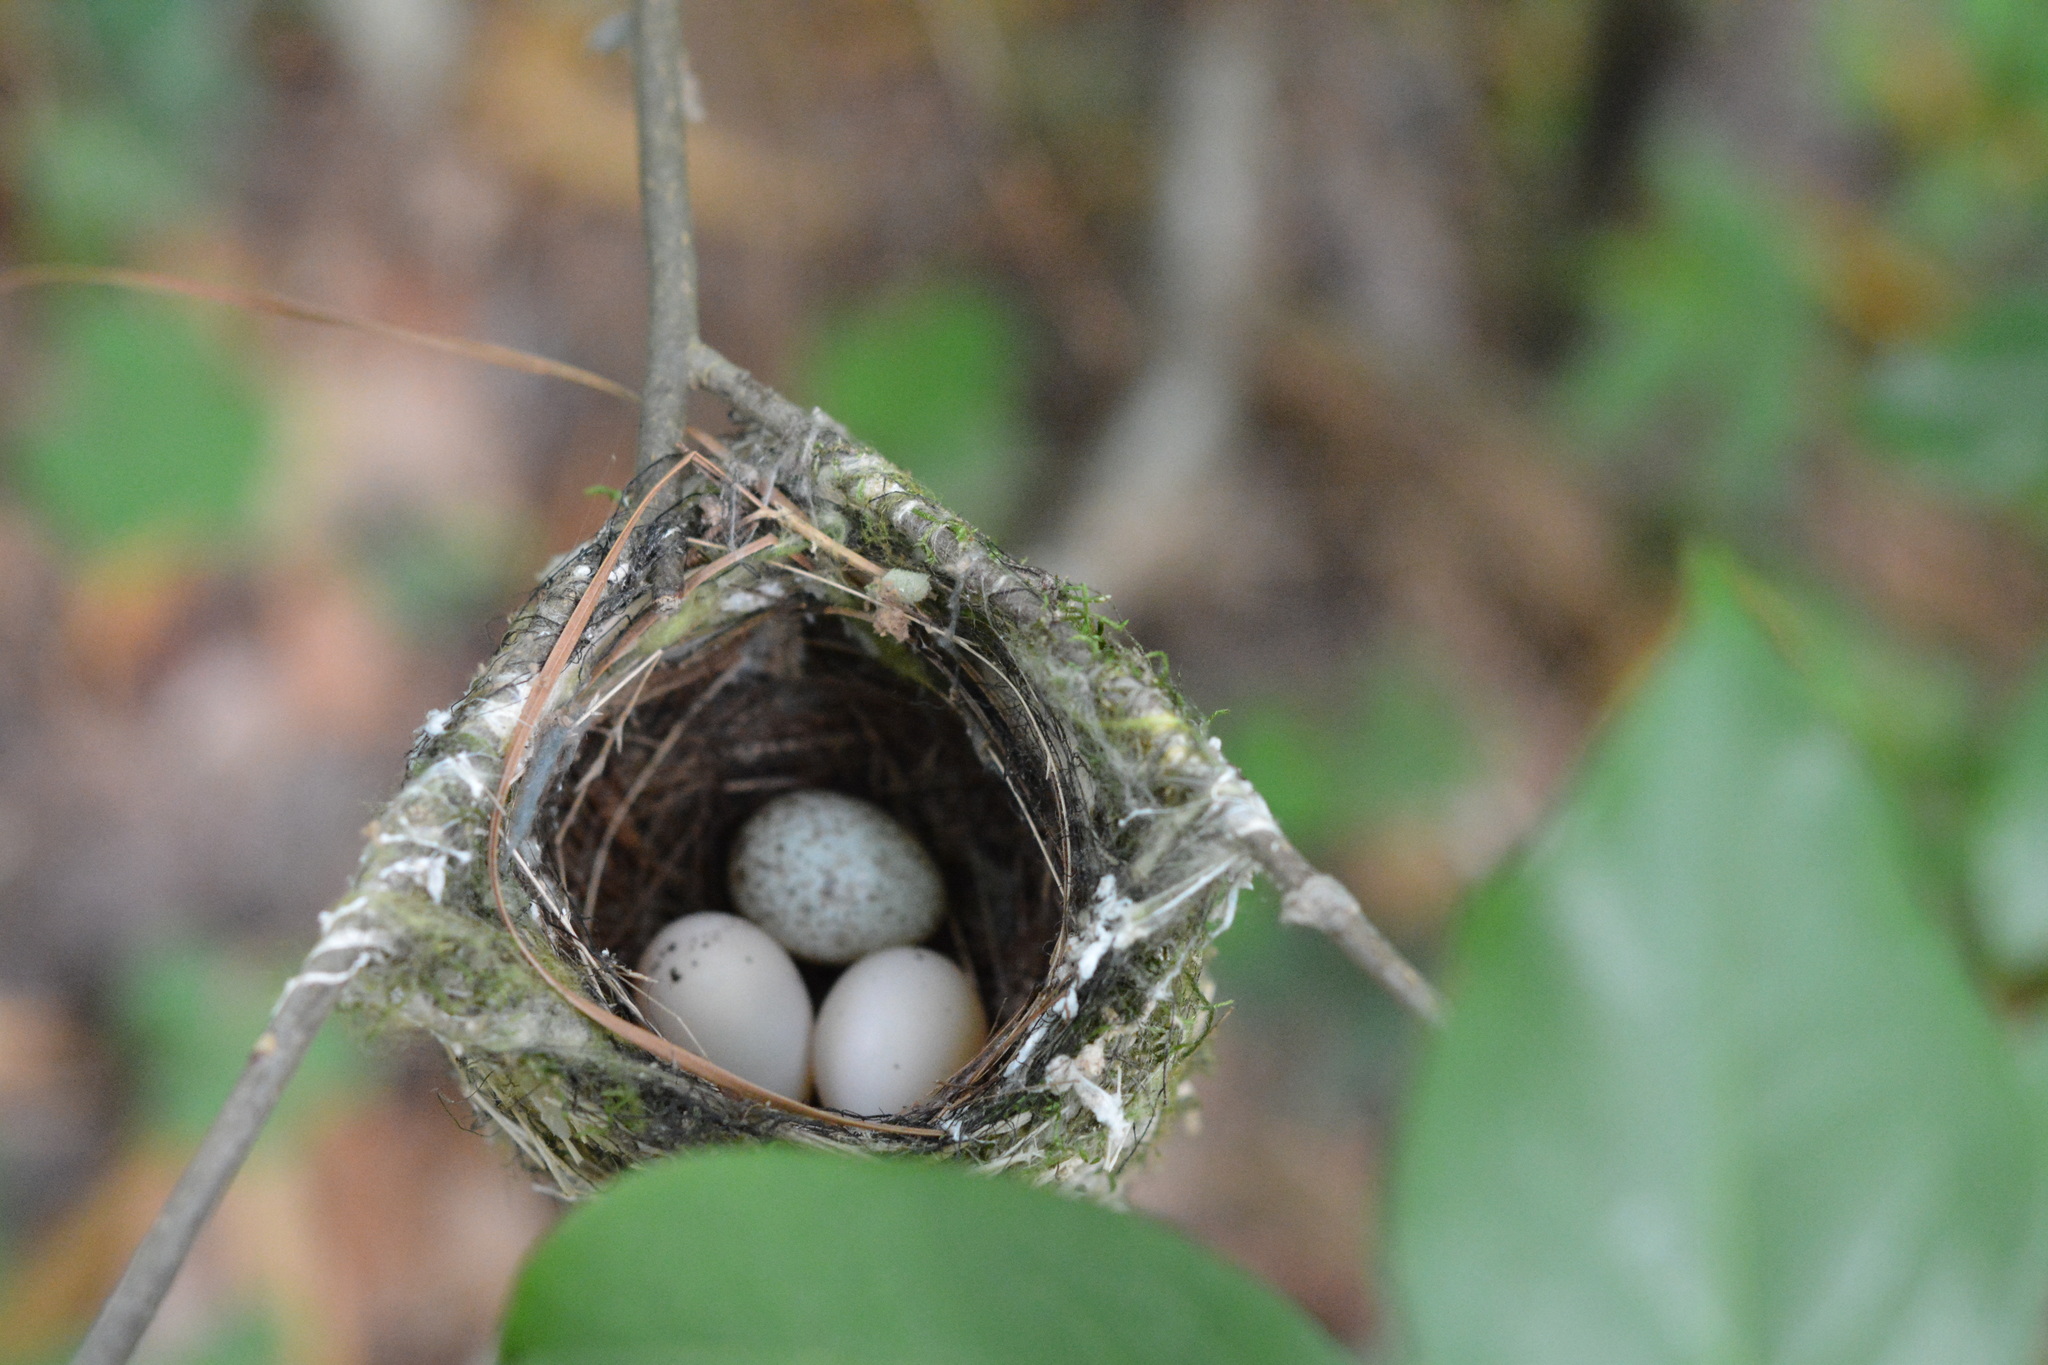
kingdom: Animalia
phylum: Chordata
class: Aves
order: Passeriformes
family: Vireonidae
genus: Vireo
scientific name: Vireo griseus
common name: White-eyed vireo
